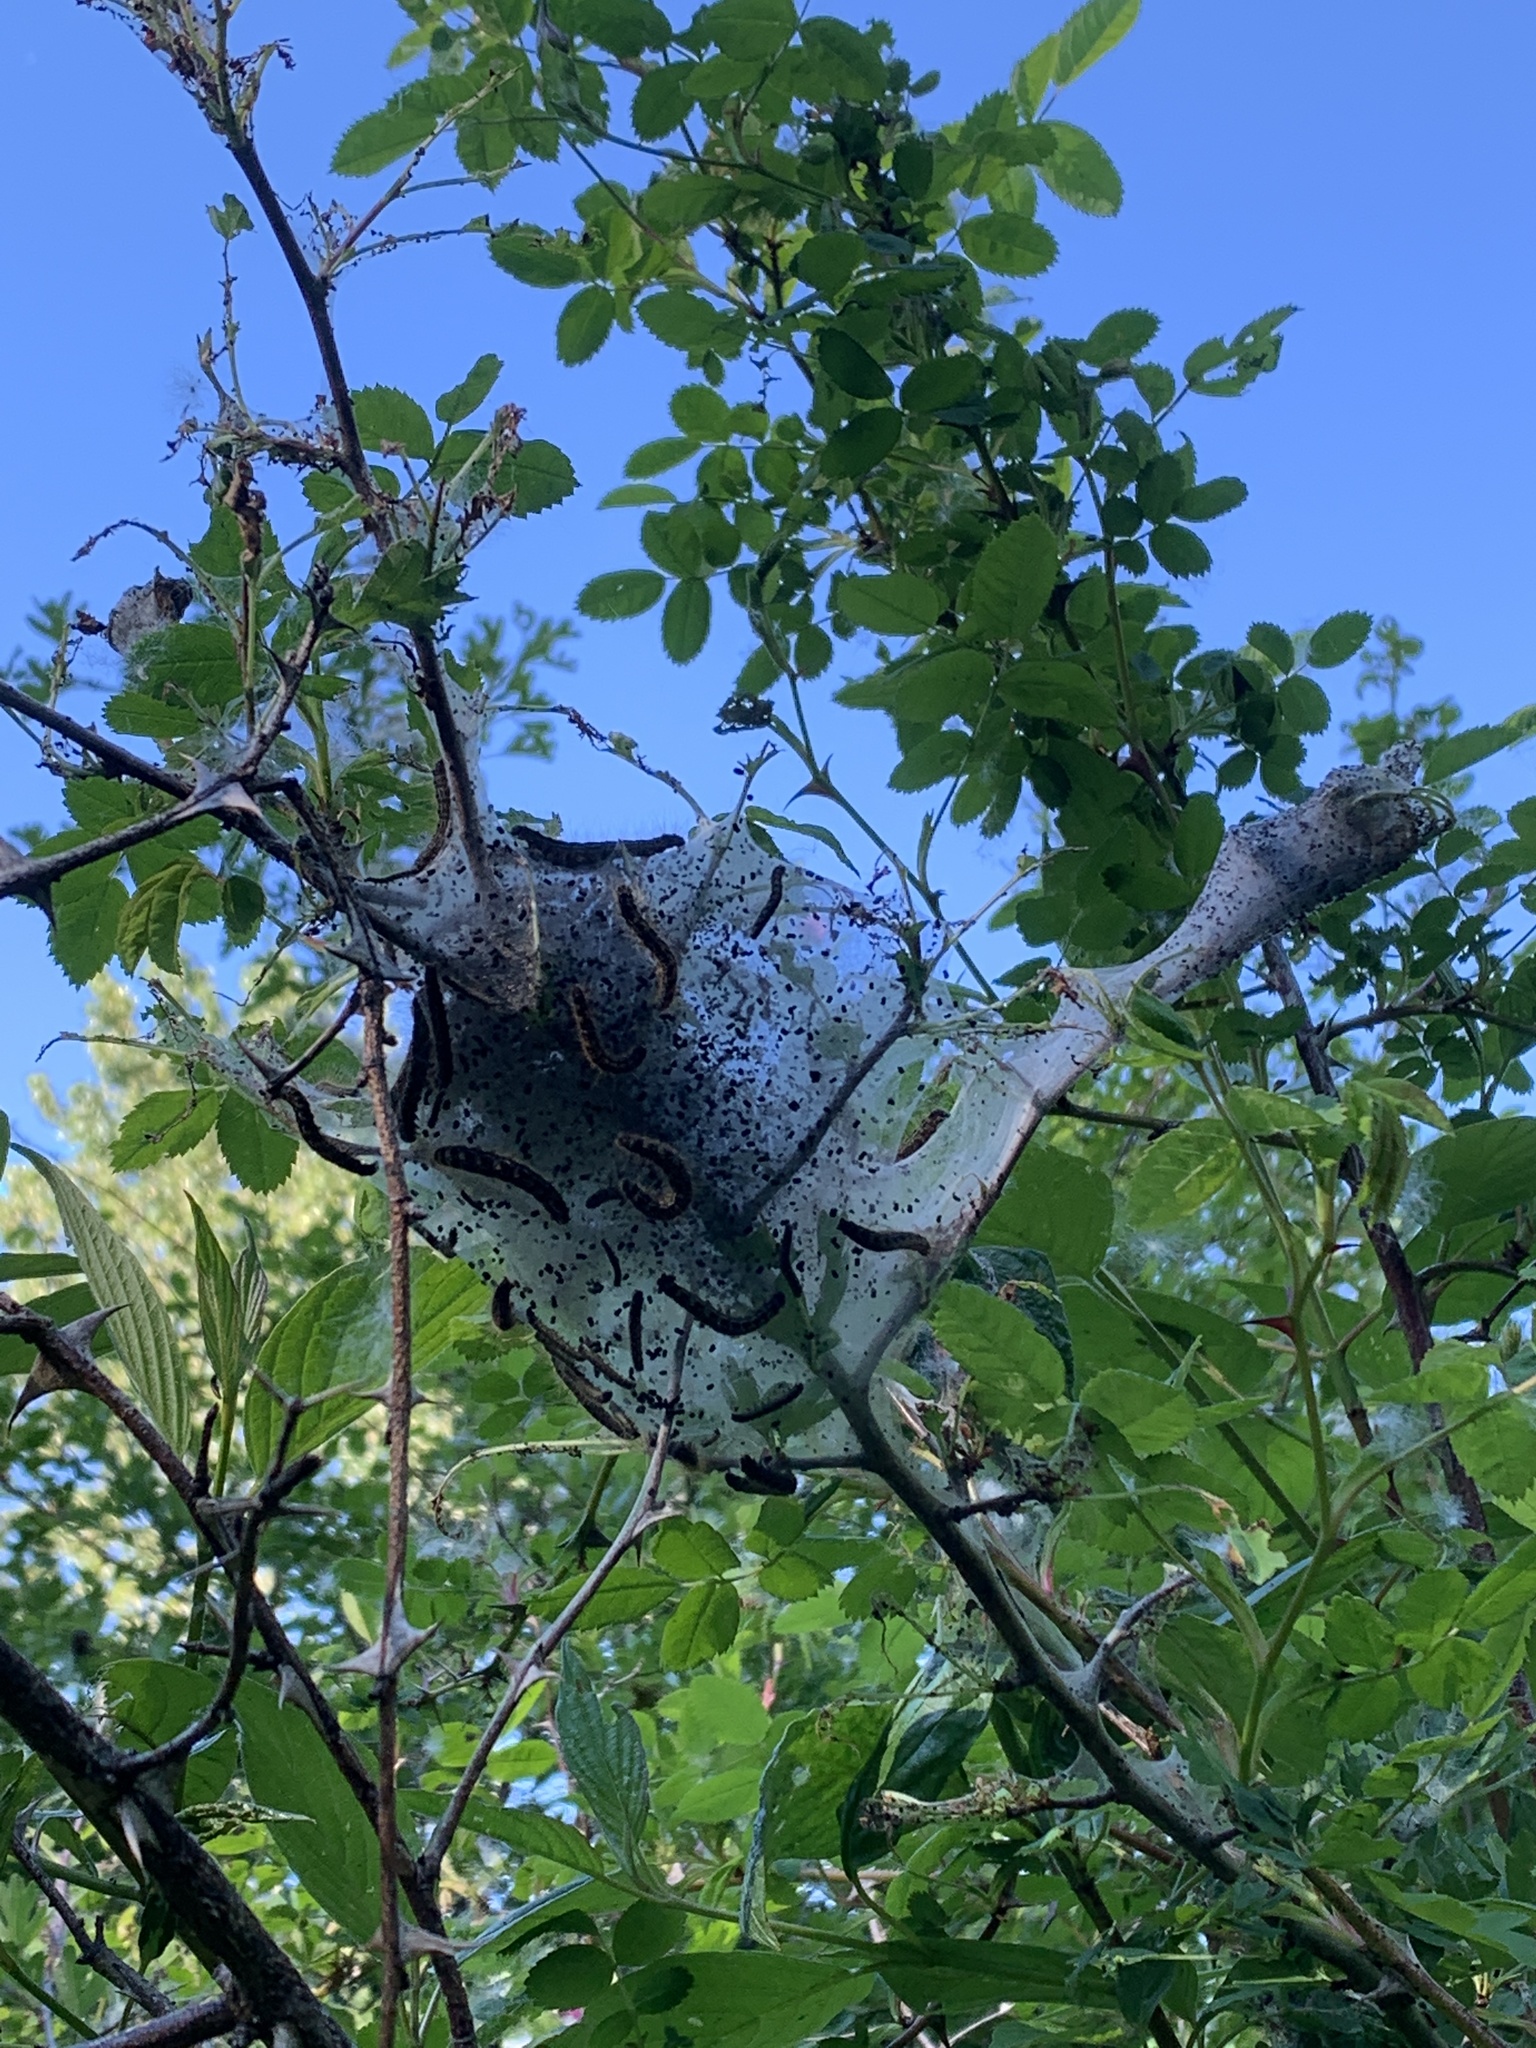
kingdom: Animalia
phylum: Arthropoda
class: Insecta
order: Lepidoptera
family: Lasiocampidae
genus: Malacosoma
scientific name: Malacosoma californica
